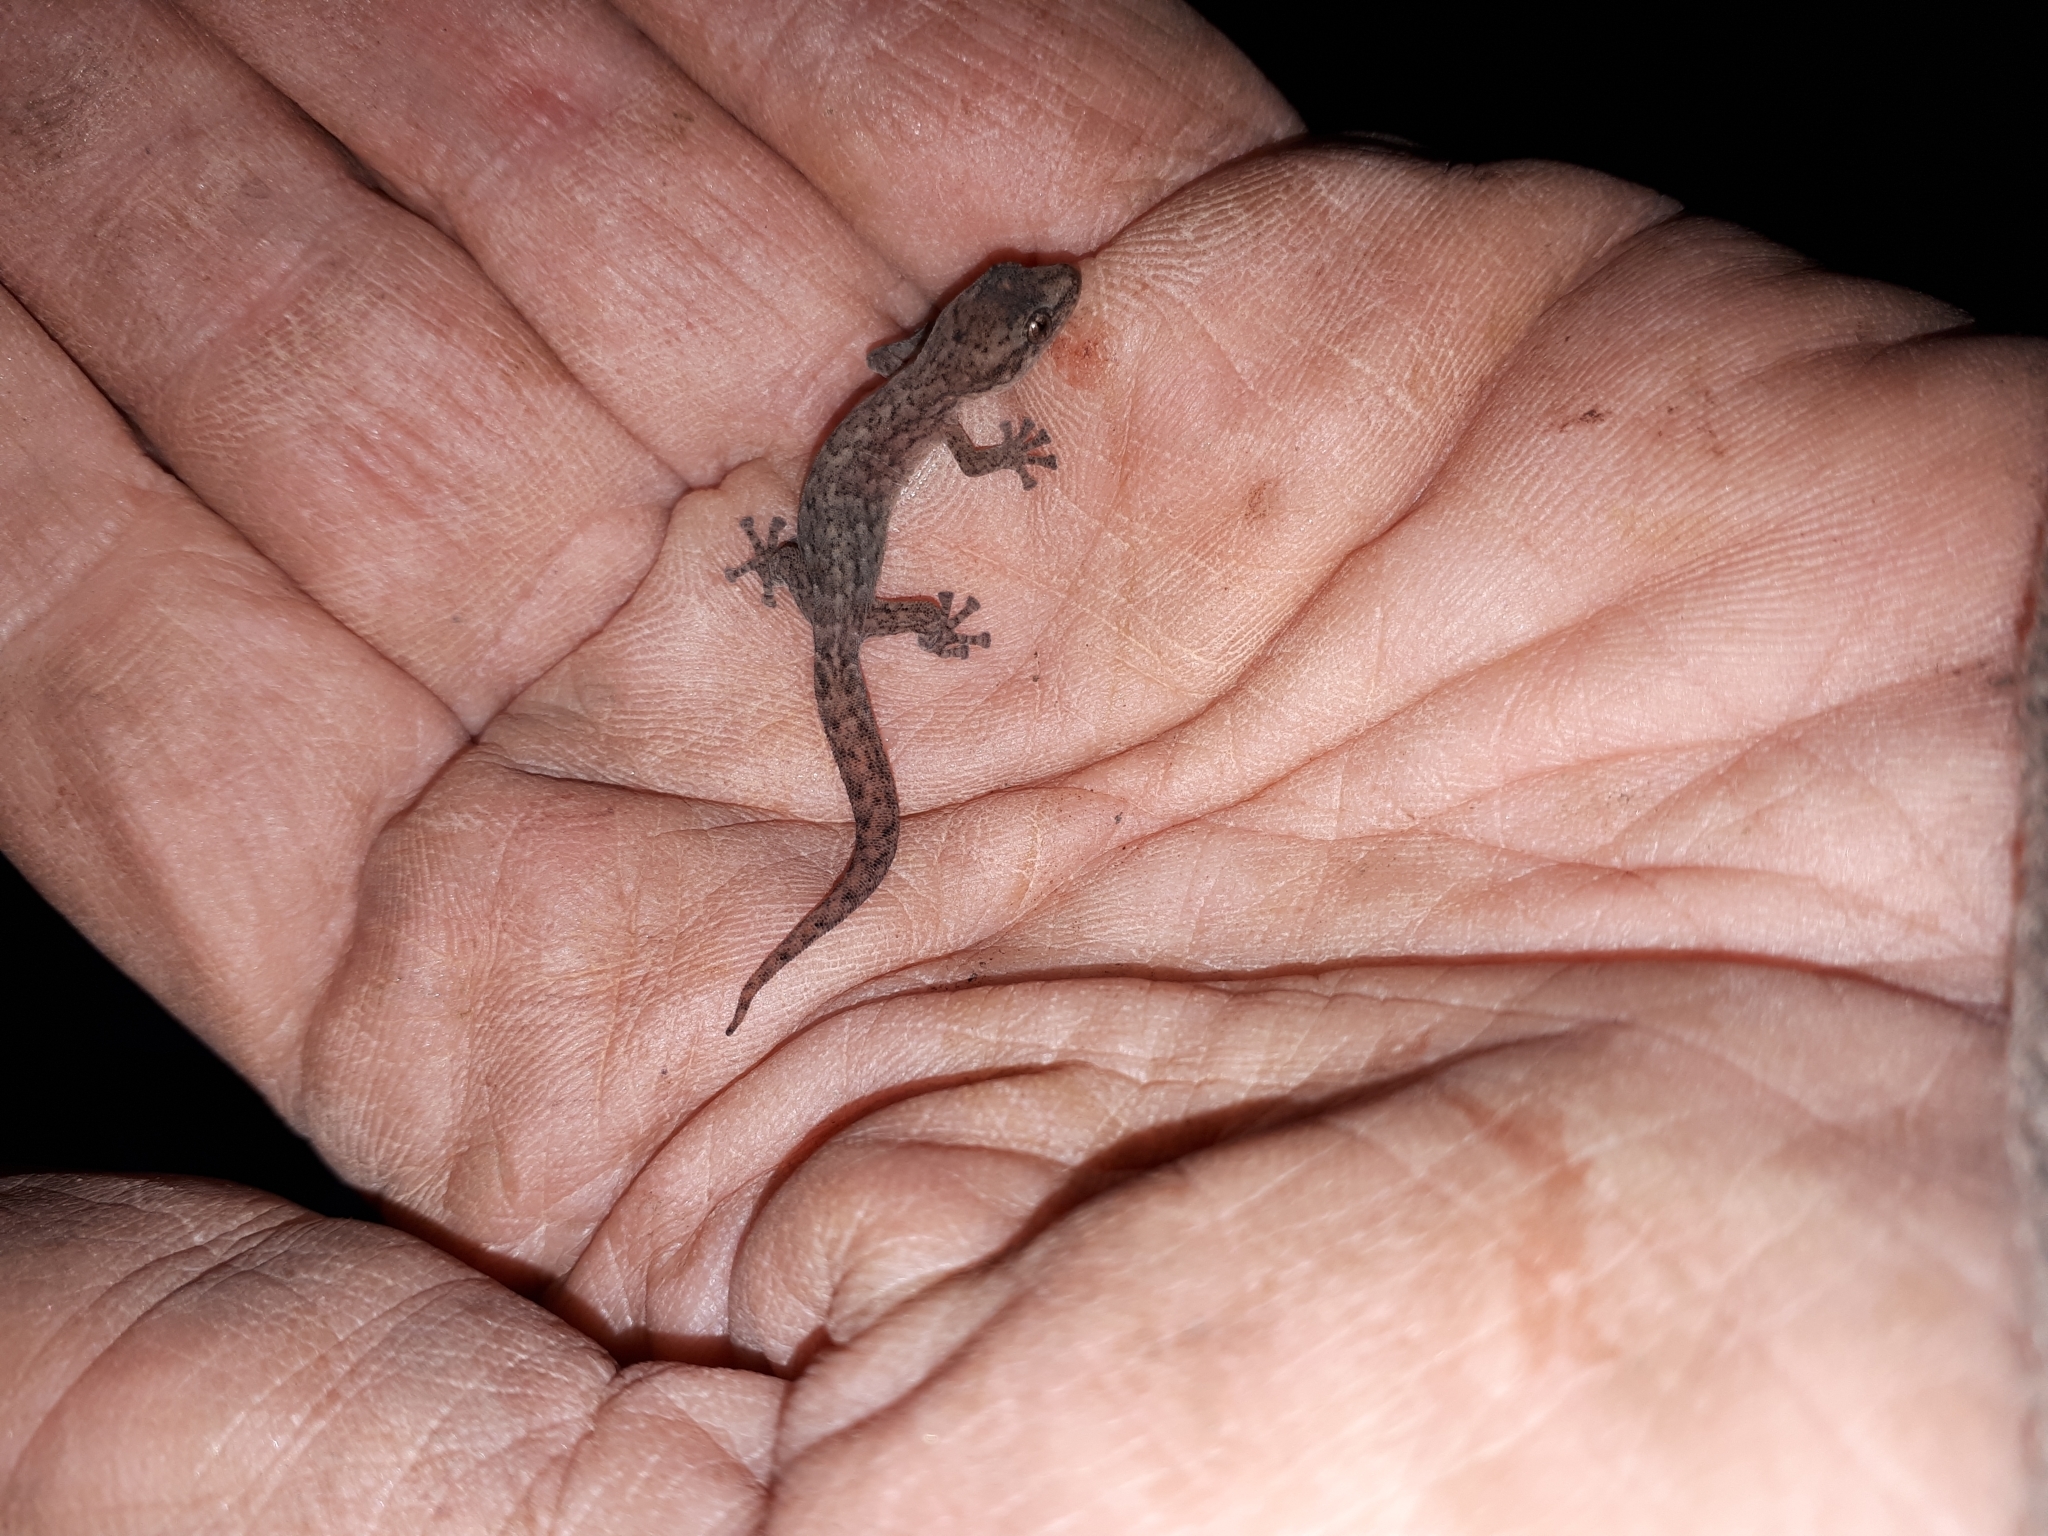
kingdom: Animalia
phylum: Chordata
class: Squamata
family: Gekkonidae
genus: Afrogecko
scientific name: Afrogecko porphyreus
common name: Marbled leaf-toed gecko
